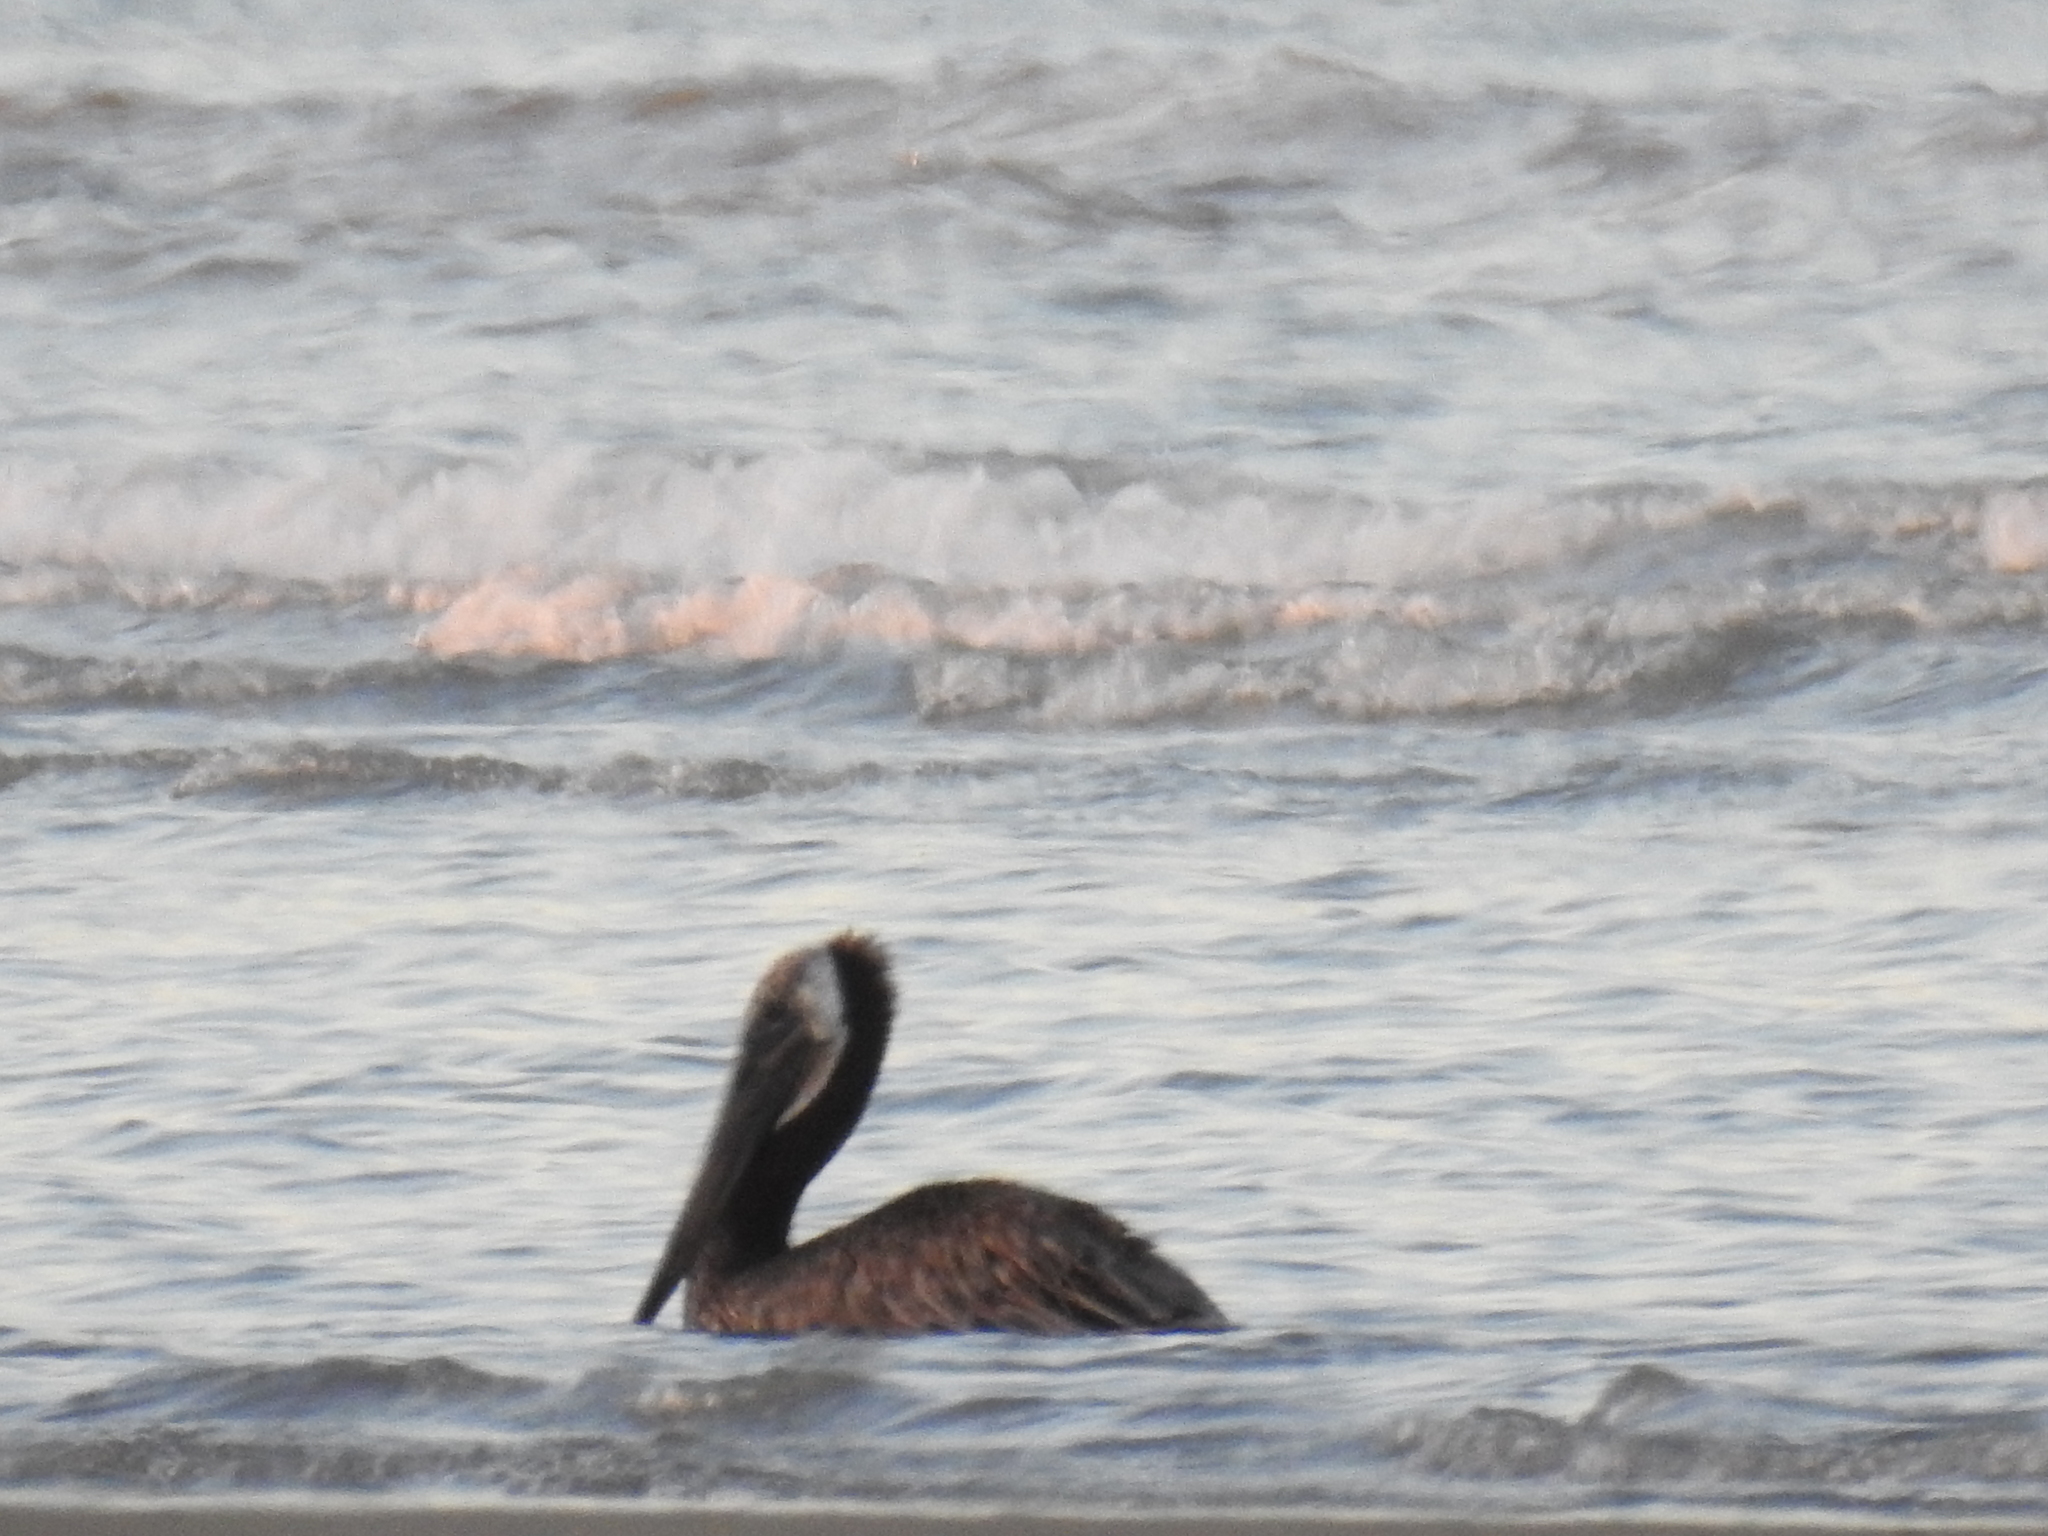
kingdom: Animalia
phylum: Chordata
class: Aves
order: Pelecaniformes
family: Pelecanidae
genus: Pelecanus
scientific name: Pelecanus occidentalis
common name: Brown pelican
